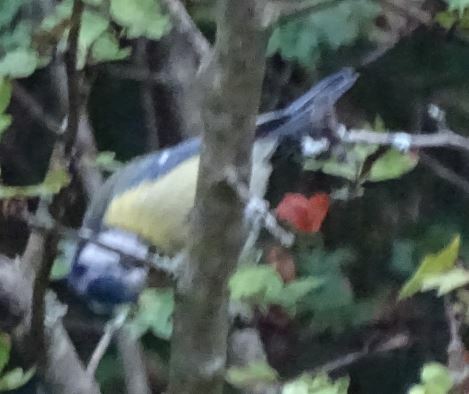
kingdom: Animalia
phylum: Chordata
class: Aves
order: Passeriformes
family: Paridae
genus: Cyanistes
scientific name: Cyanistes caeruleus
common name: Eurasian blue tit
